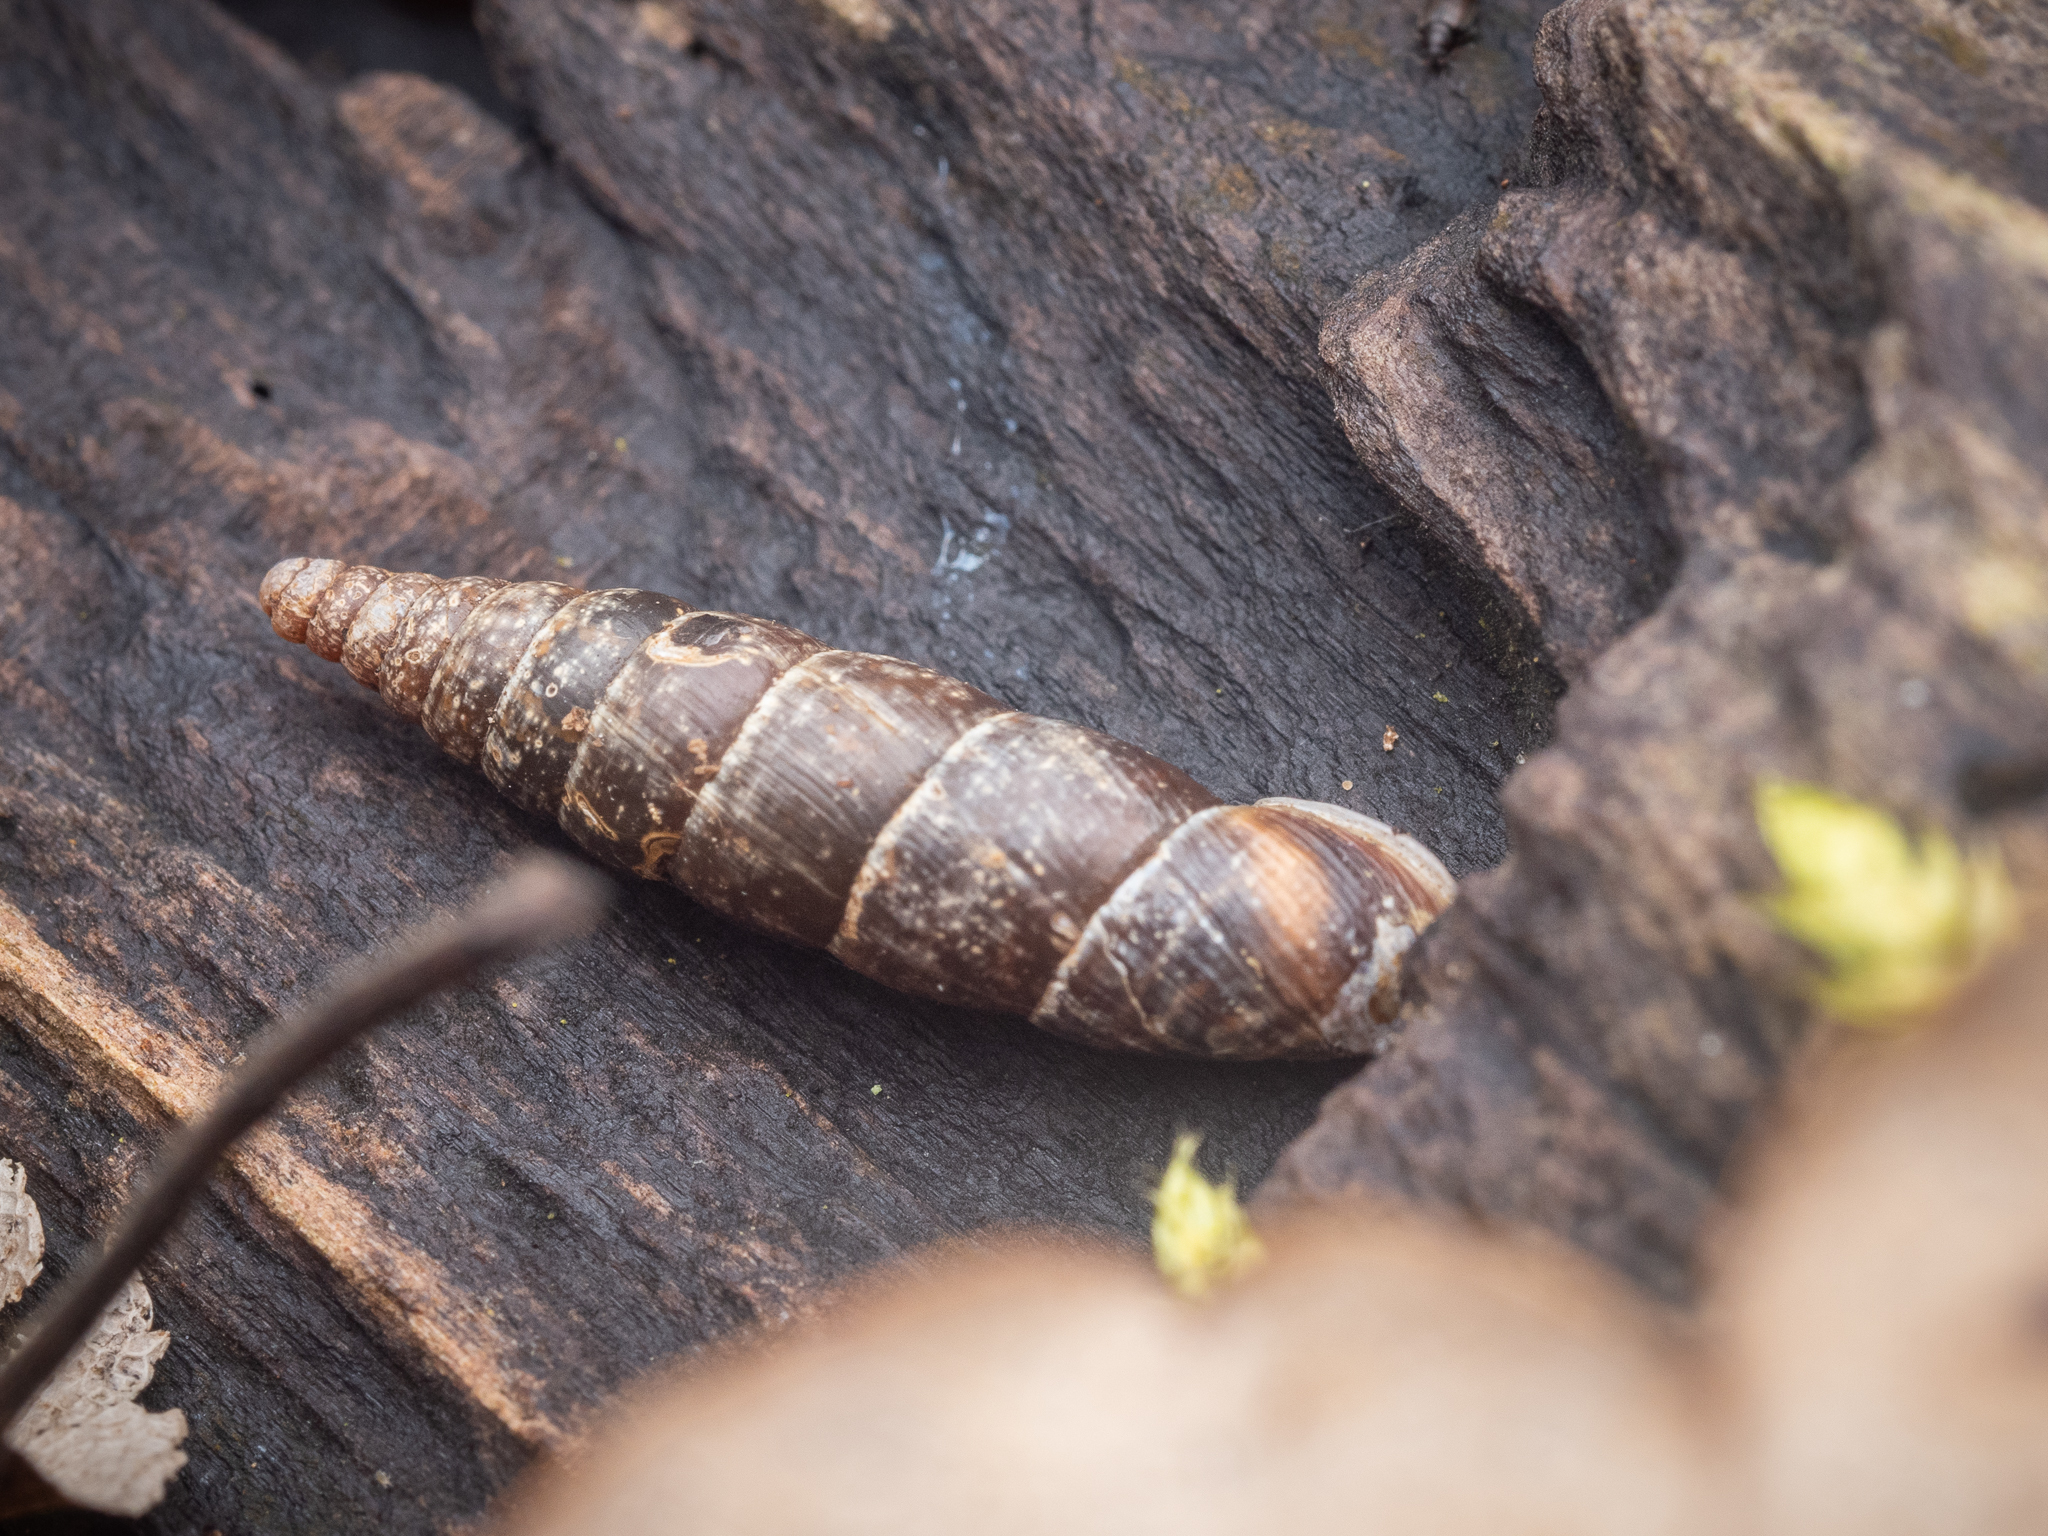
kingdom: Animalia
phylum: Mollusca
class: Gastropoda
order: Stylommatophora
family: Clausiliidae
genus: Cochlodina
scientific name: Cochlodina laminata
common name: Plaited door snail
